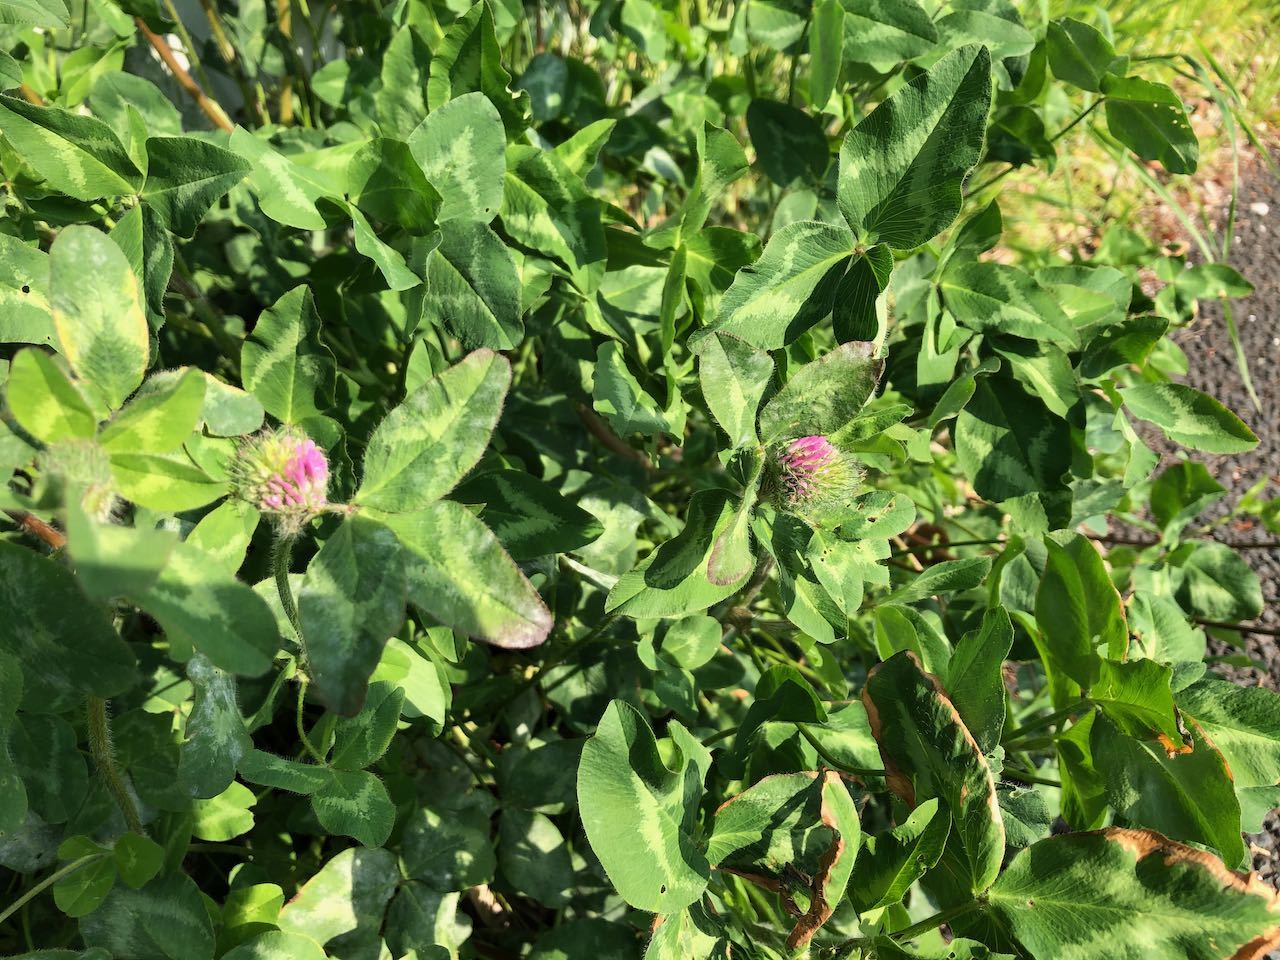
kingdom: Plantae
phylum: Tracheophyta
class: Magnoliopsida
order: Fabales
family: Fabaceae
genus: Trifolium
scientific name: Trifolium pratense
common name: Red clover
